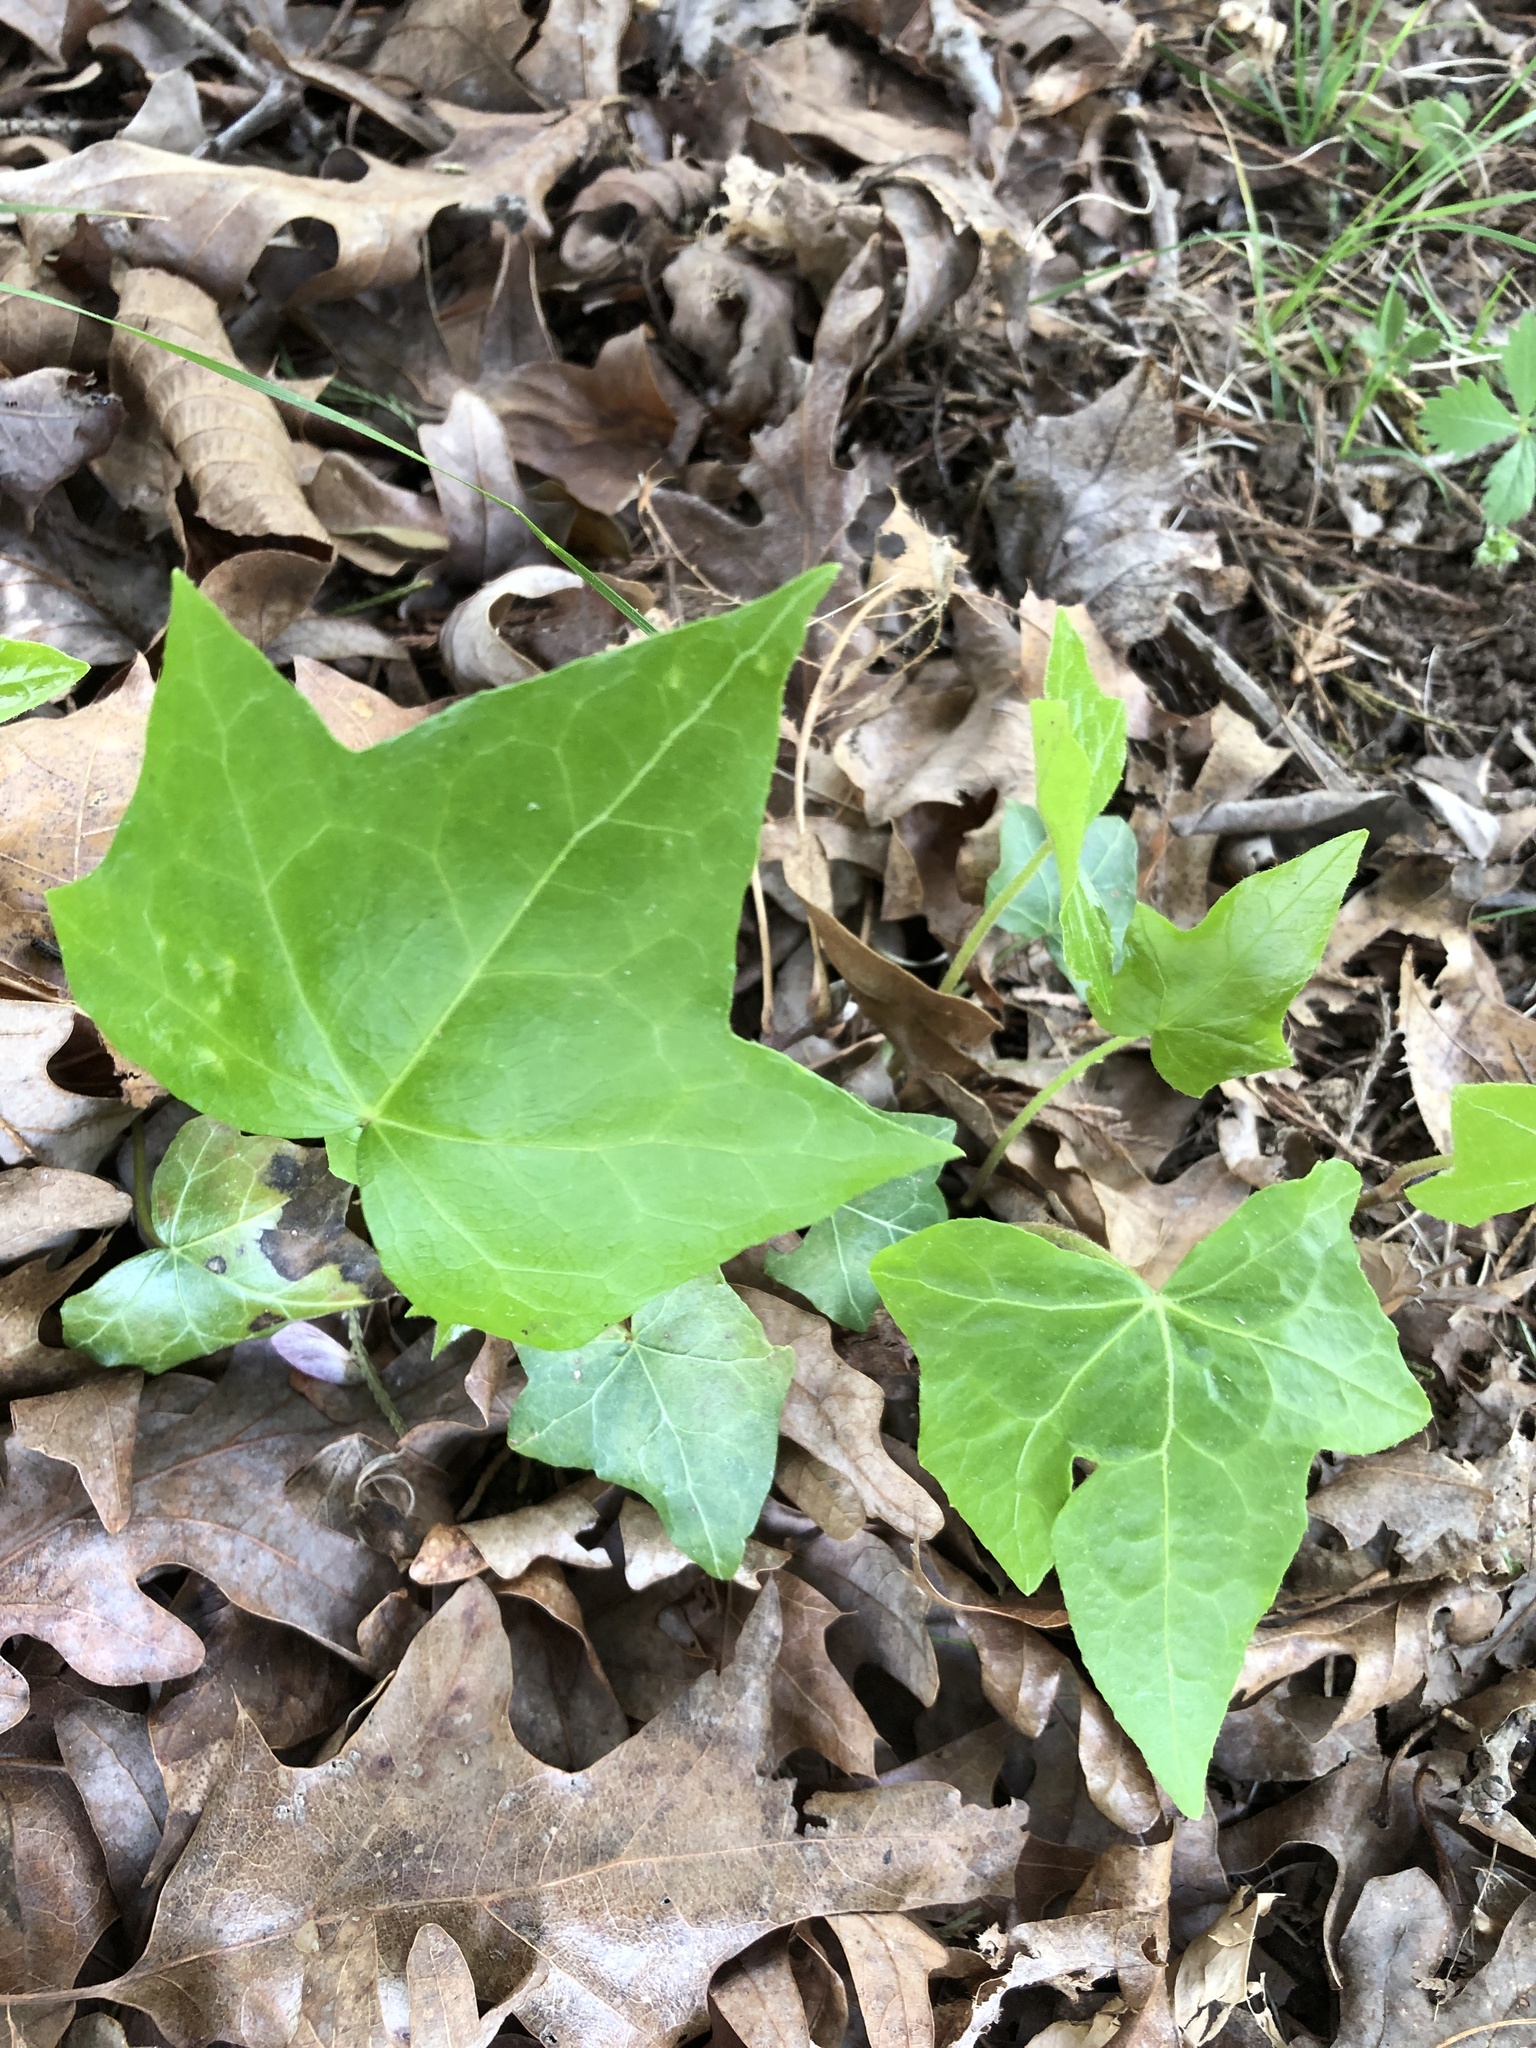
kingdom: Plantae
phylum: Tracheophyta
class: Magnoliopsida
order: Apiales
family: Araliaceae
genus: Hedera
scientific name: Hedera helix
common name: Ivy
